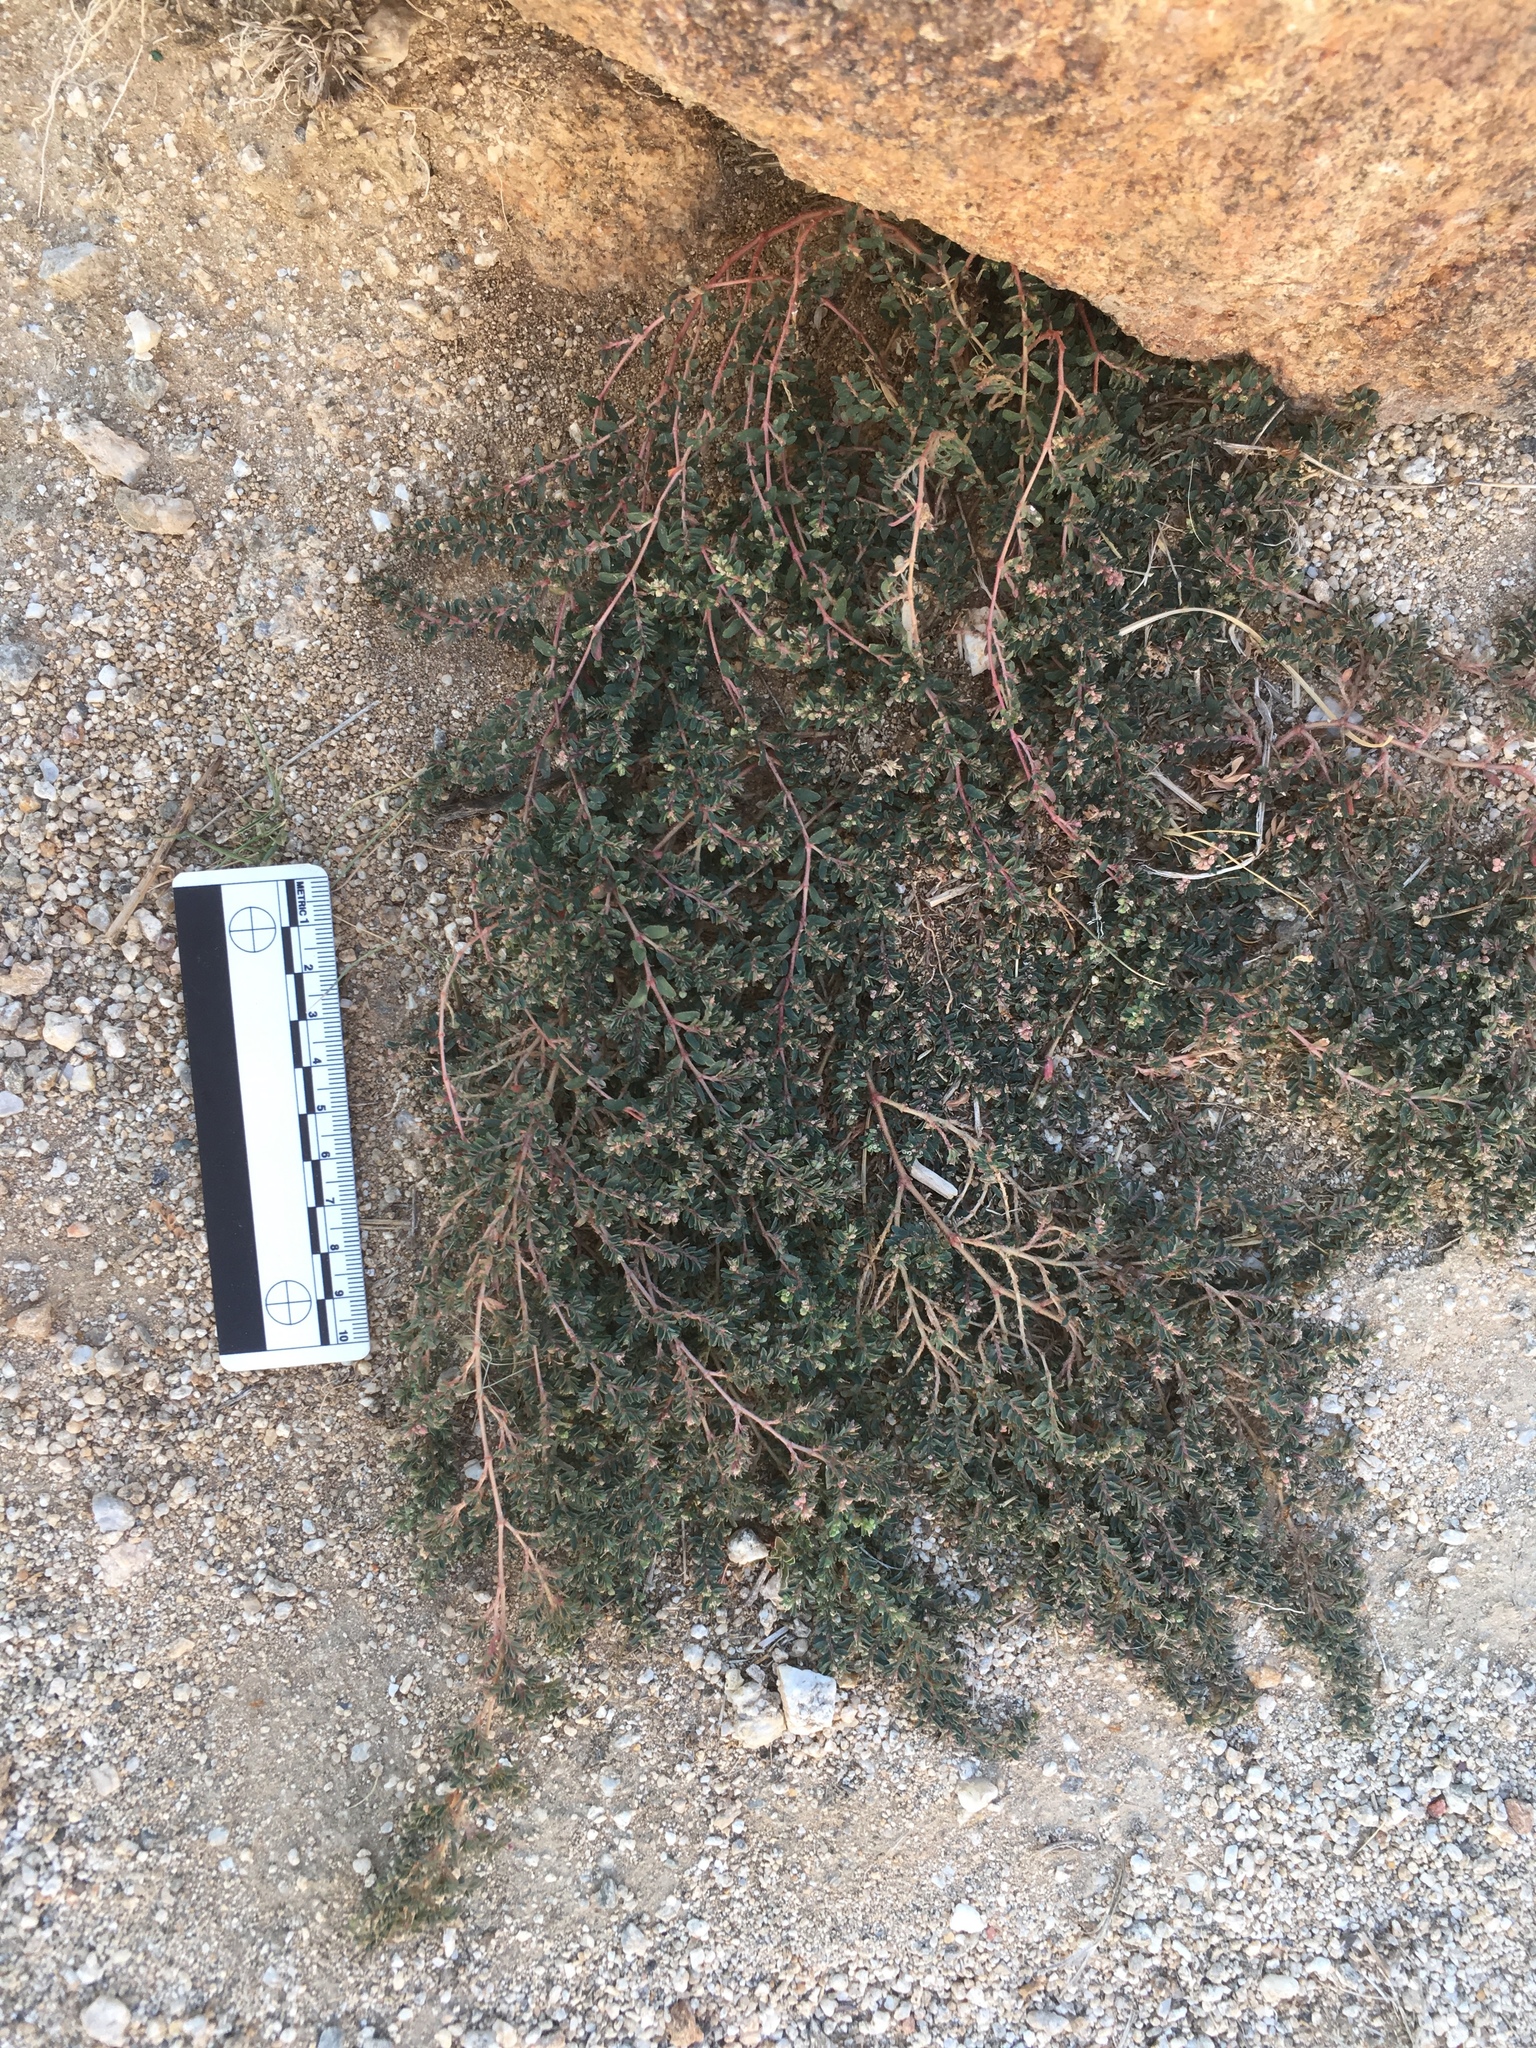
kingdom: Plantae
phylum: Tracheophyta
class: Magnoliopsida
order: Malpighiales
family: Euphorbiaceae
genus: Euphorbia
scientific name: Euphorbia maculata
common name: Spotted spurge
